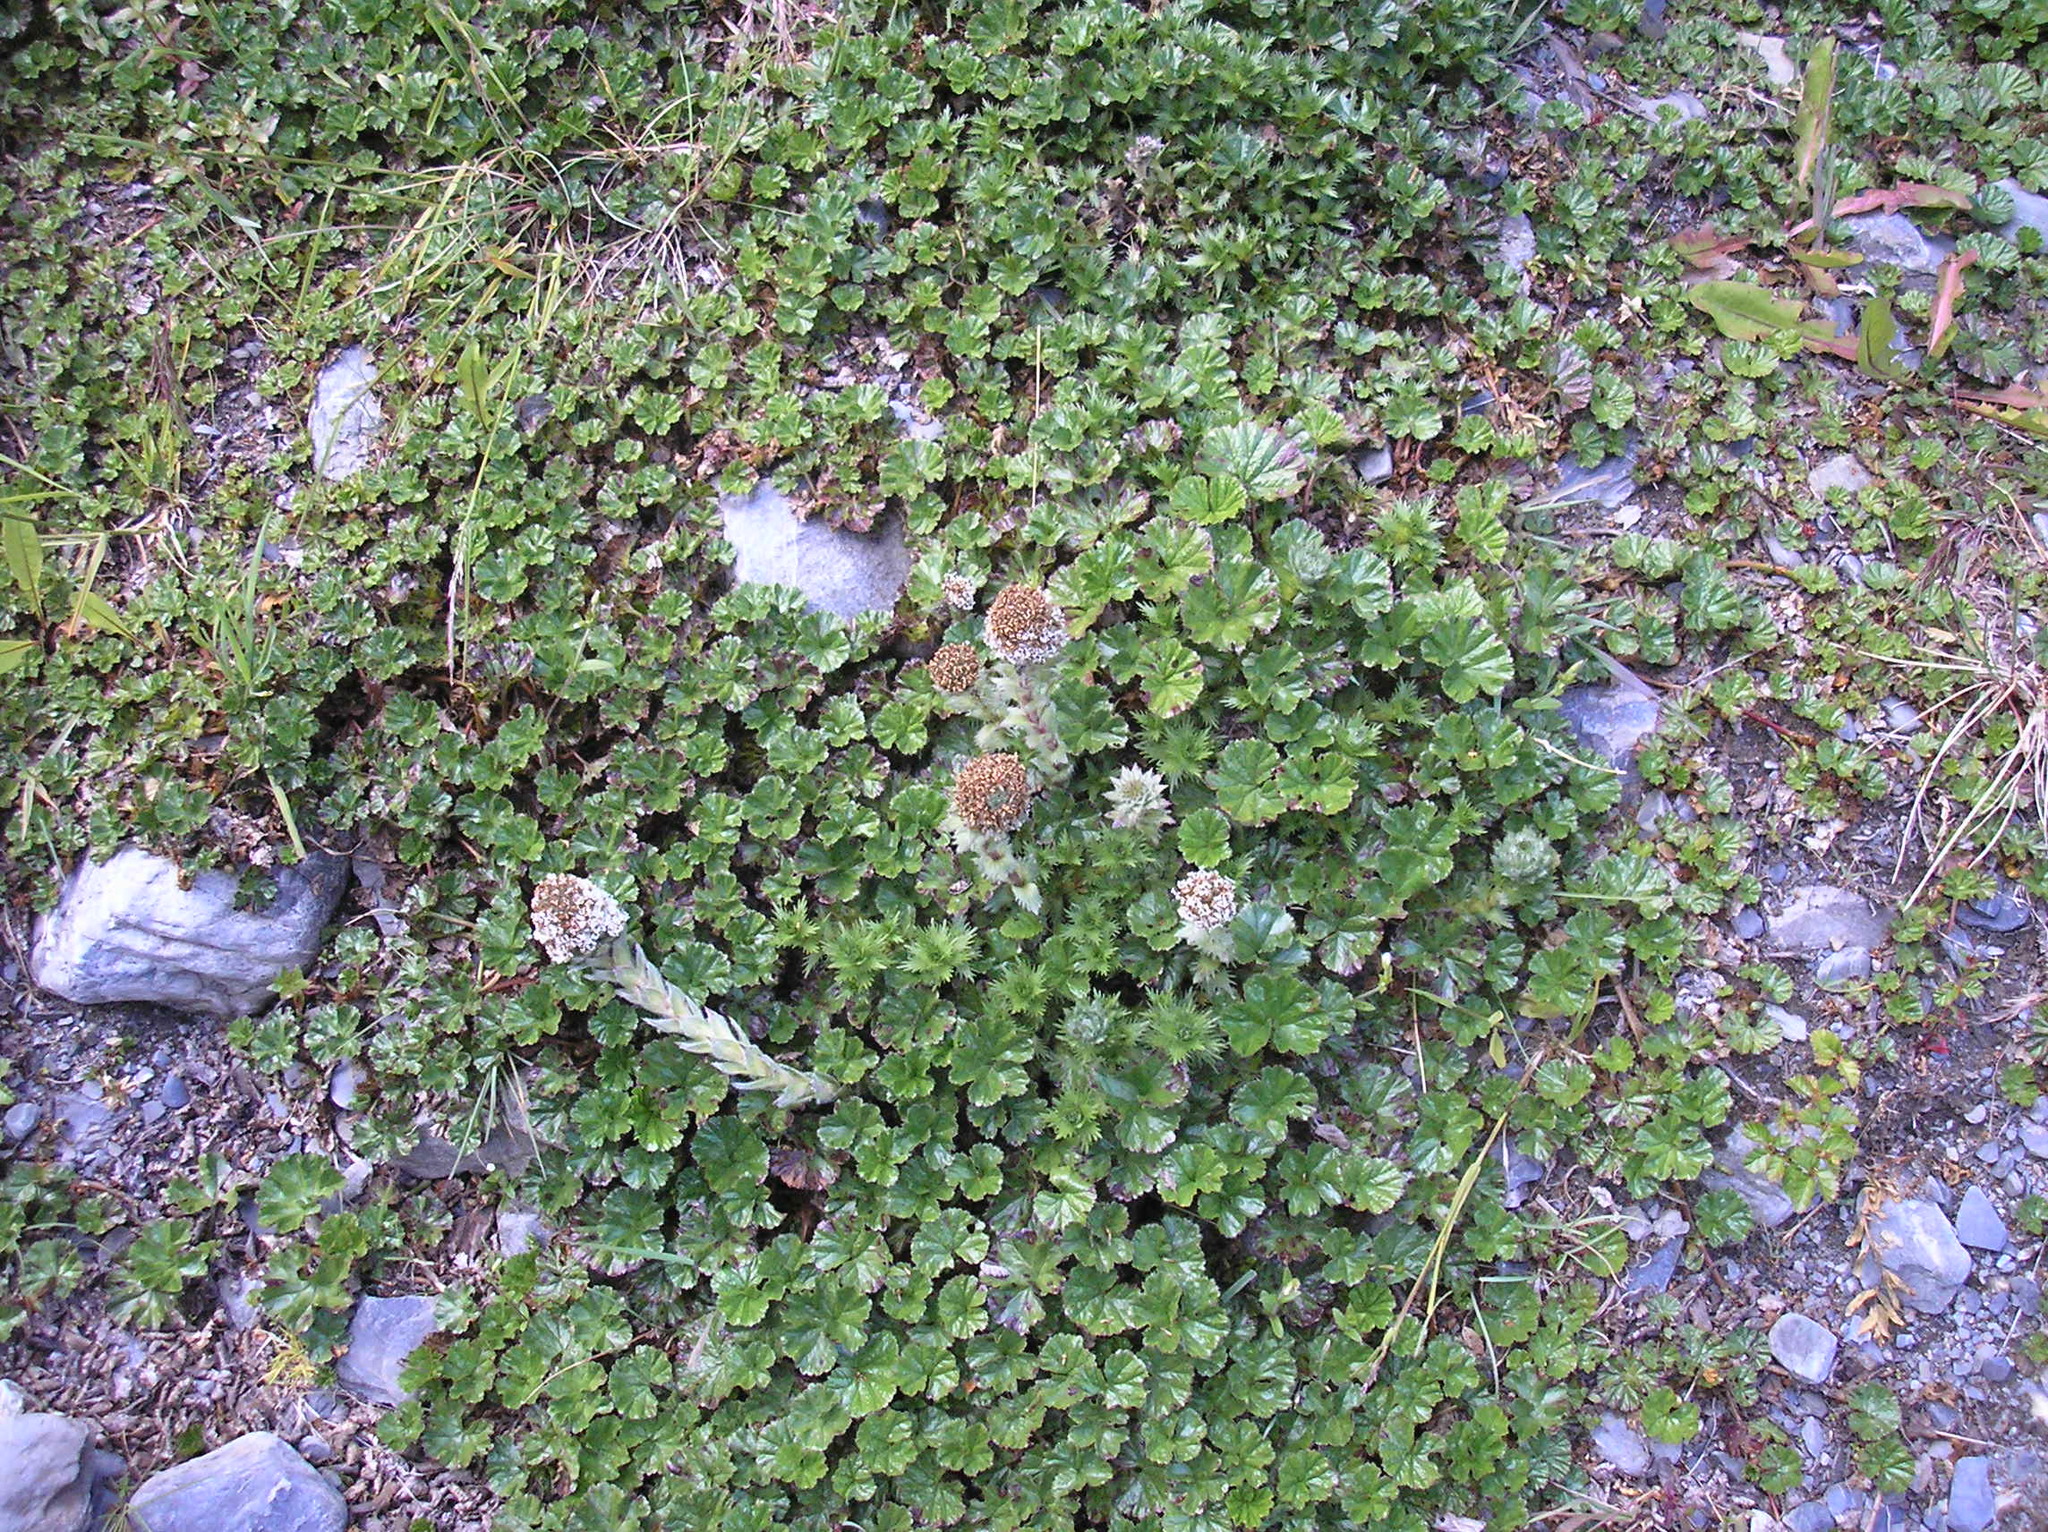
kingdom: Plantae
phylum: Tracheophyta
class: Magnoliopsida
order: Asterales
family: Asteraceae
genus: Nassauvia
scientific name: Nassauvia magellanica
